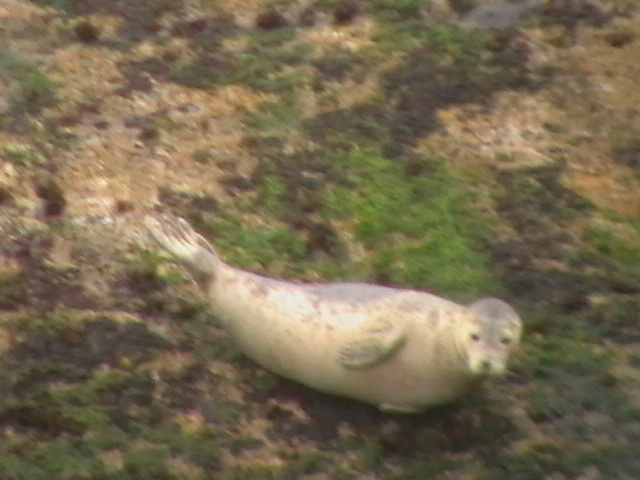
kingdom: Animalia
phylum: Chordata
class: Mammalia
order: Carnivora
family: Phocidae
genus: Phoca
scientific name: Phoca vitulina
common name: Harbor seal
